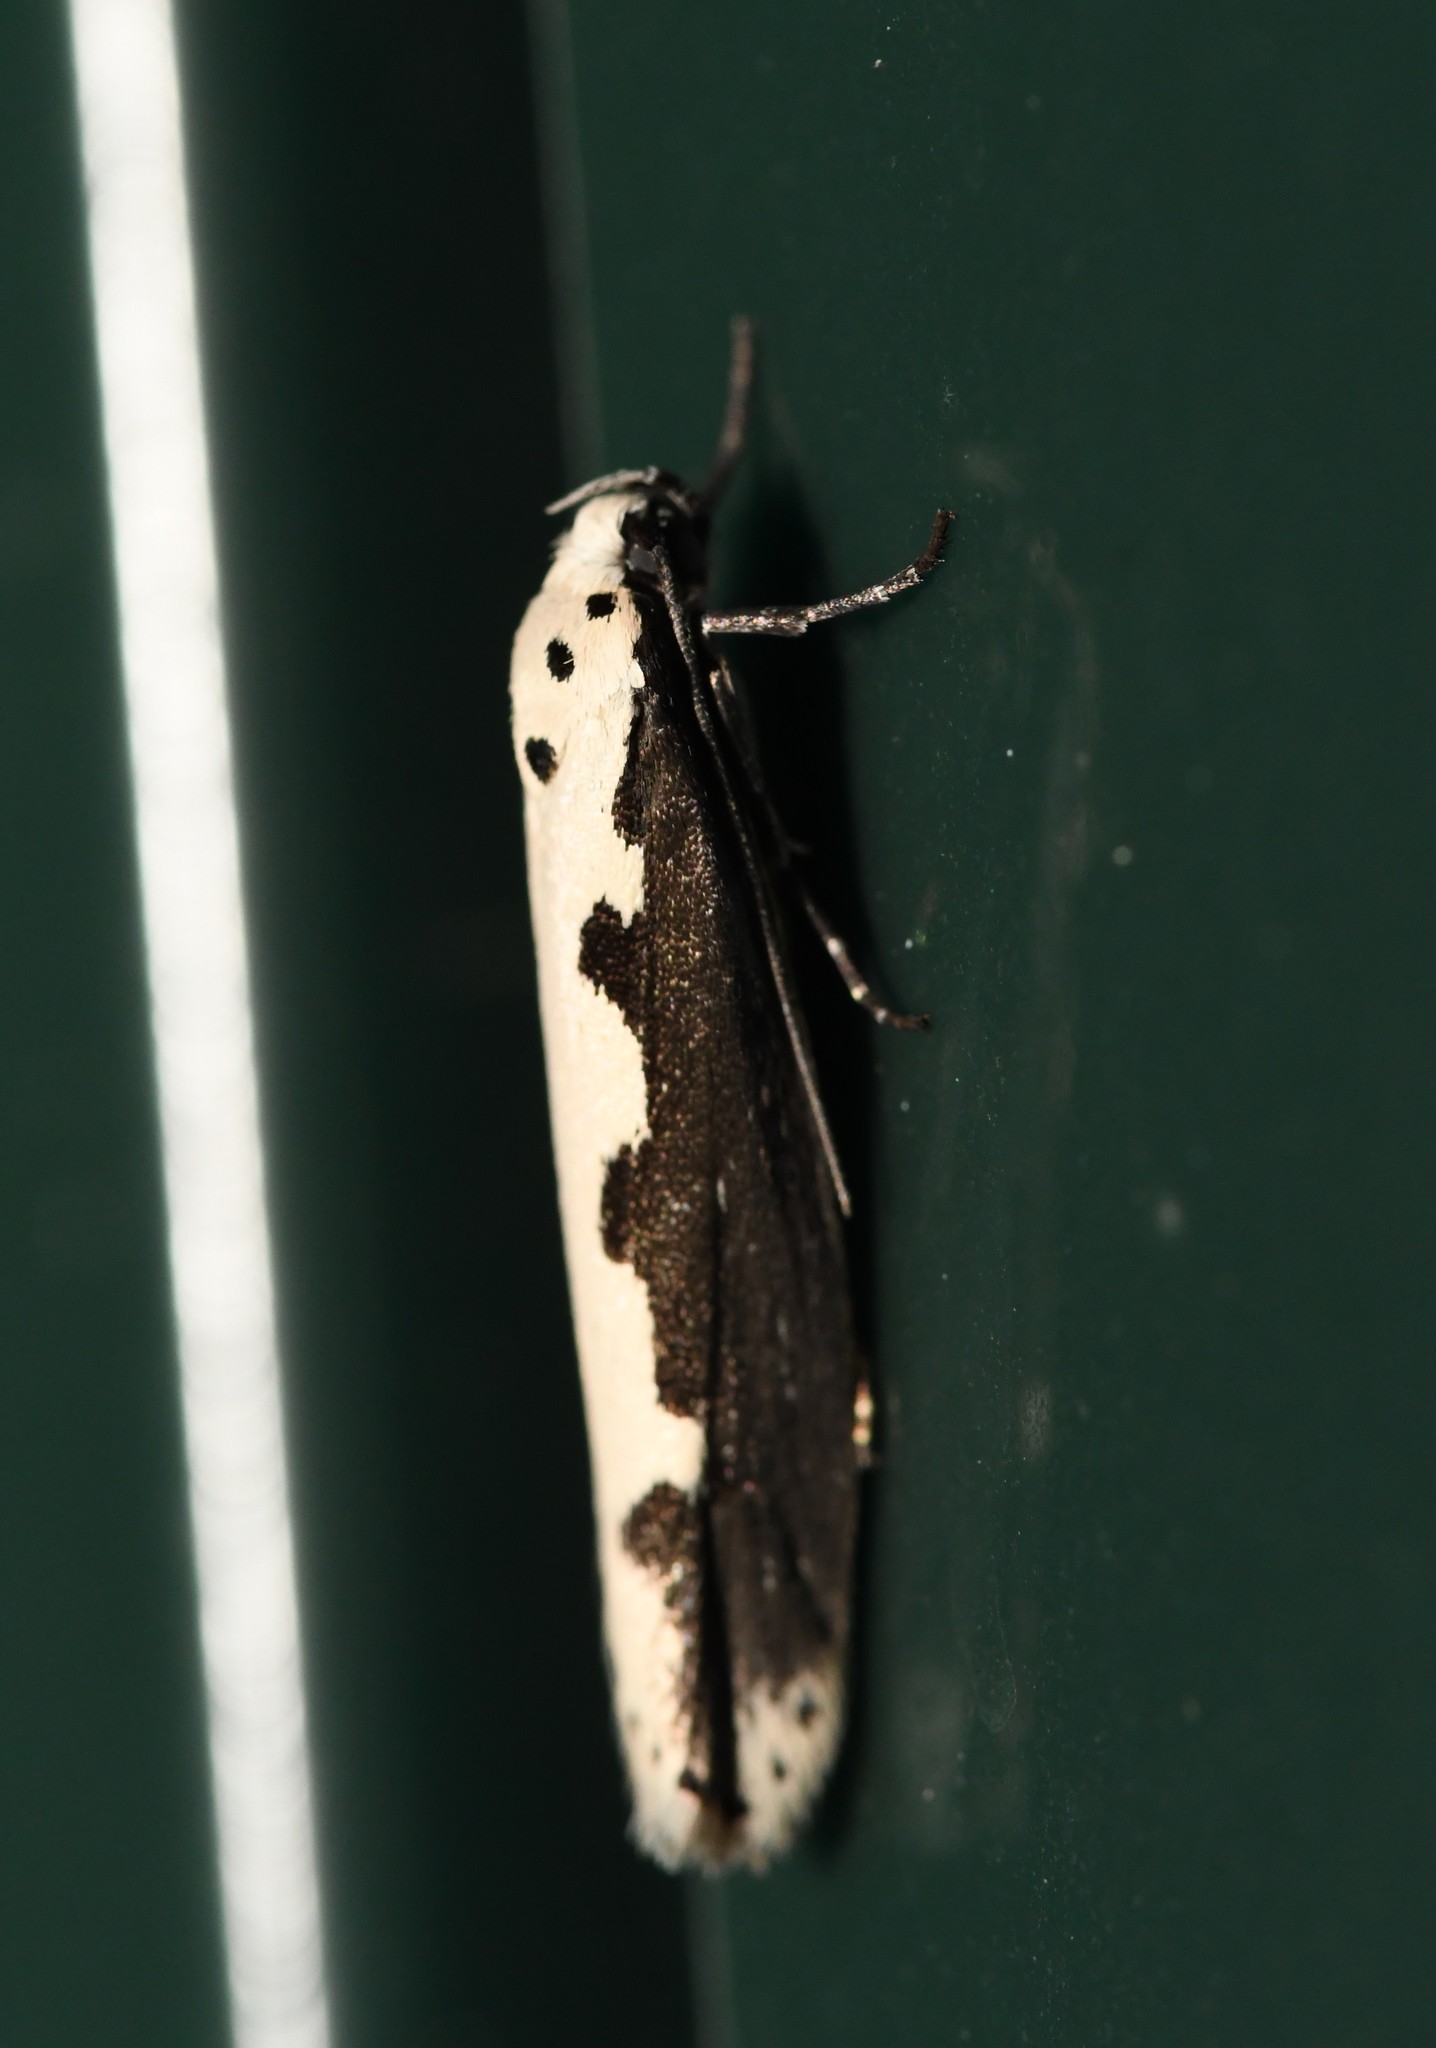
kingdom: Animalia
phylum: Arthropoda
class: Insecta
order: Lepidoptera
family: Ethmiidae
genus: Ethmia
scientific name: Ethmia bipunctella
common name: Bordered ermel
